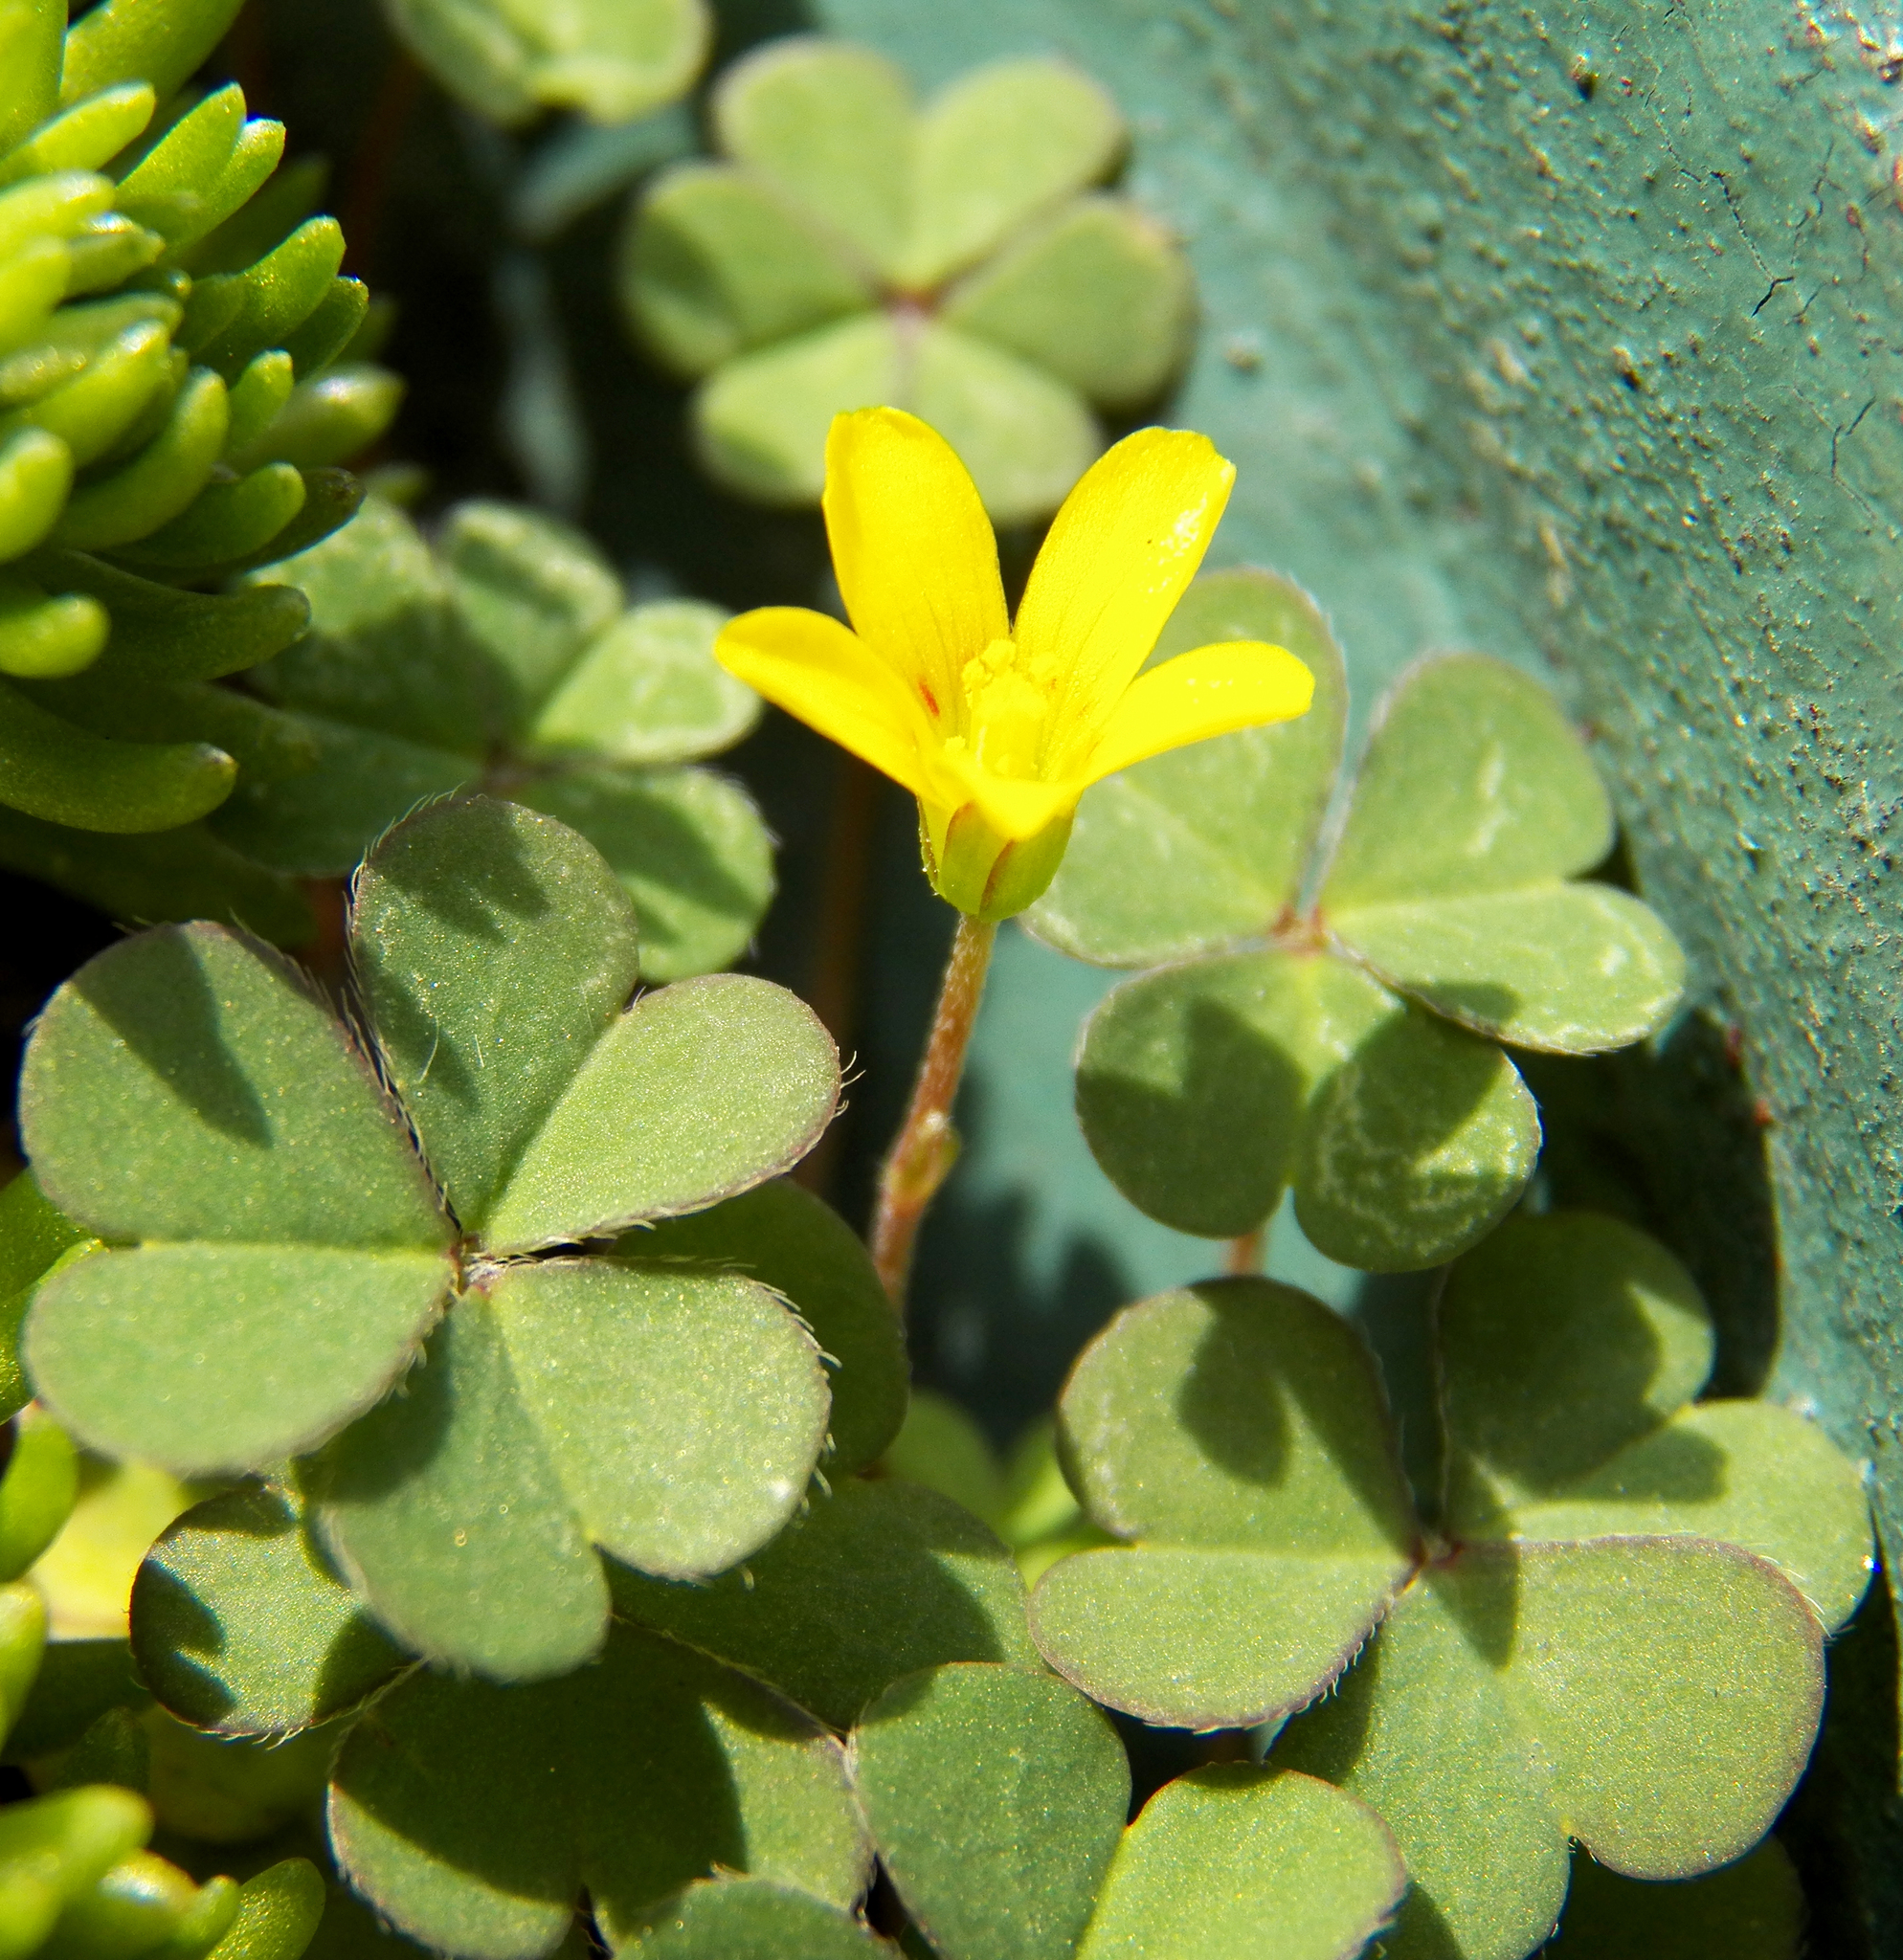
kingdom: Plantae
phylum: Tracheophyta
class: Magnoliopsida
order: Oxalidales
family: Oxalidaceae
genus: Oxalis
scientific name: Oxalis corniculata
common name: Procumbent yellow-sorrel
